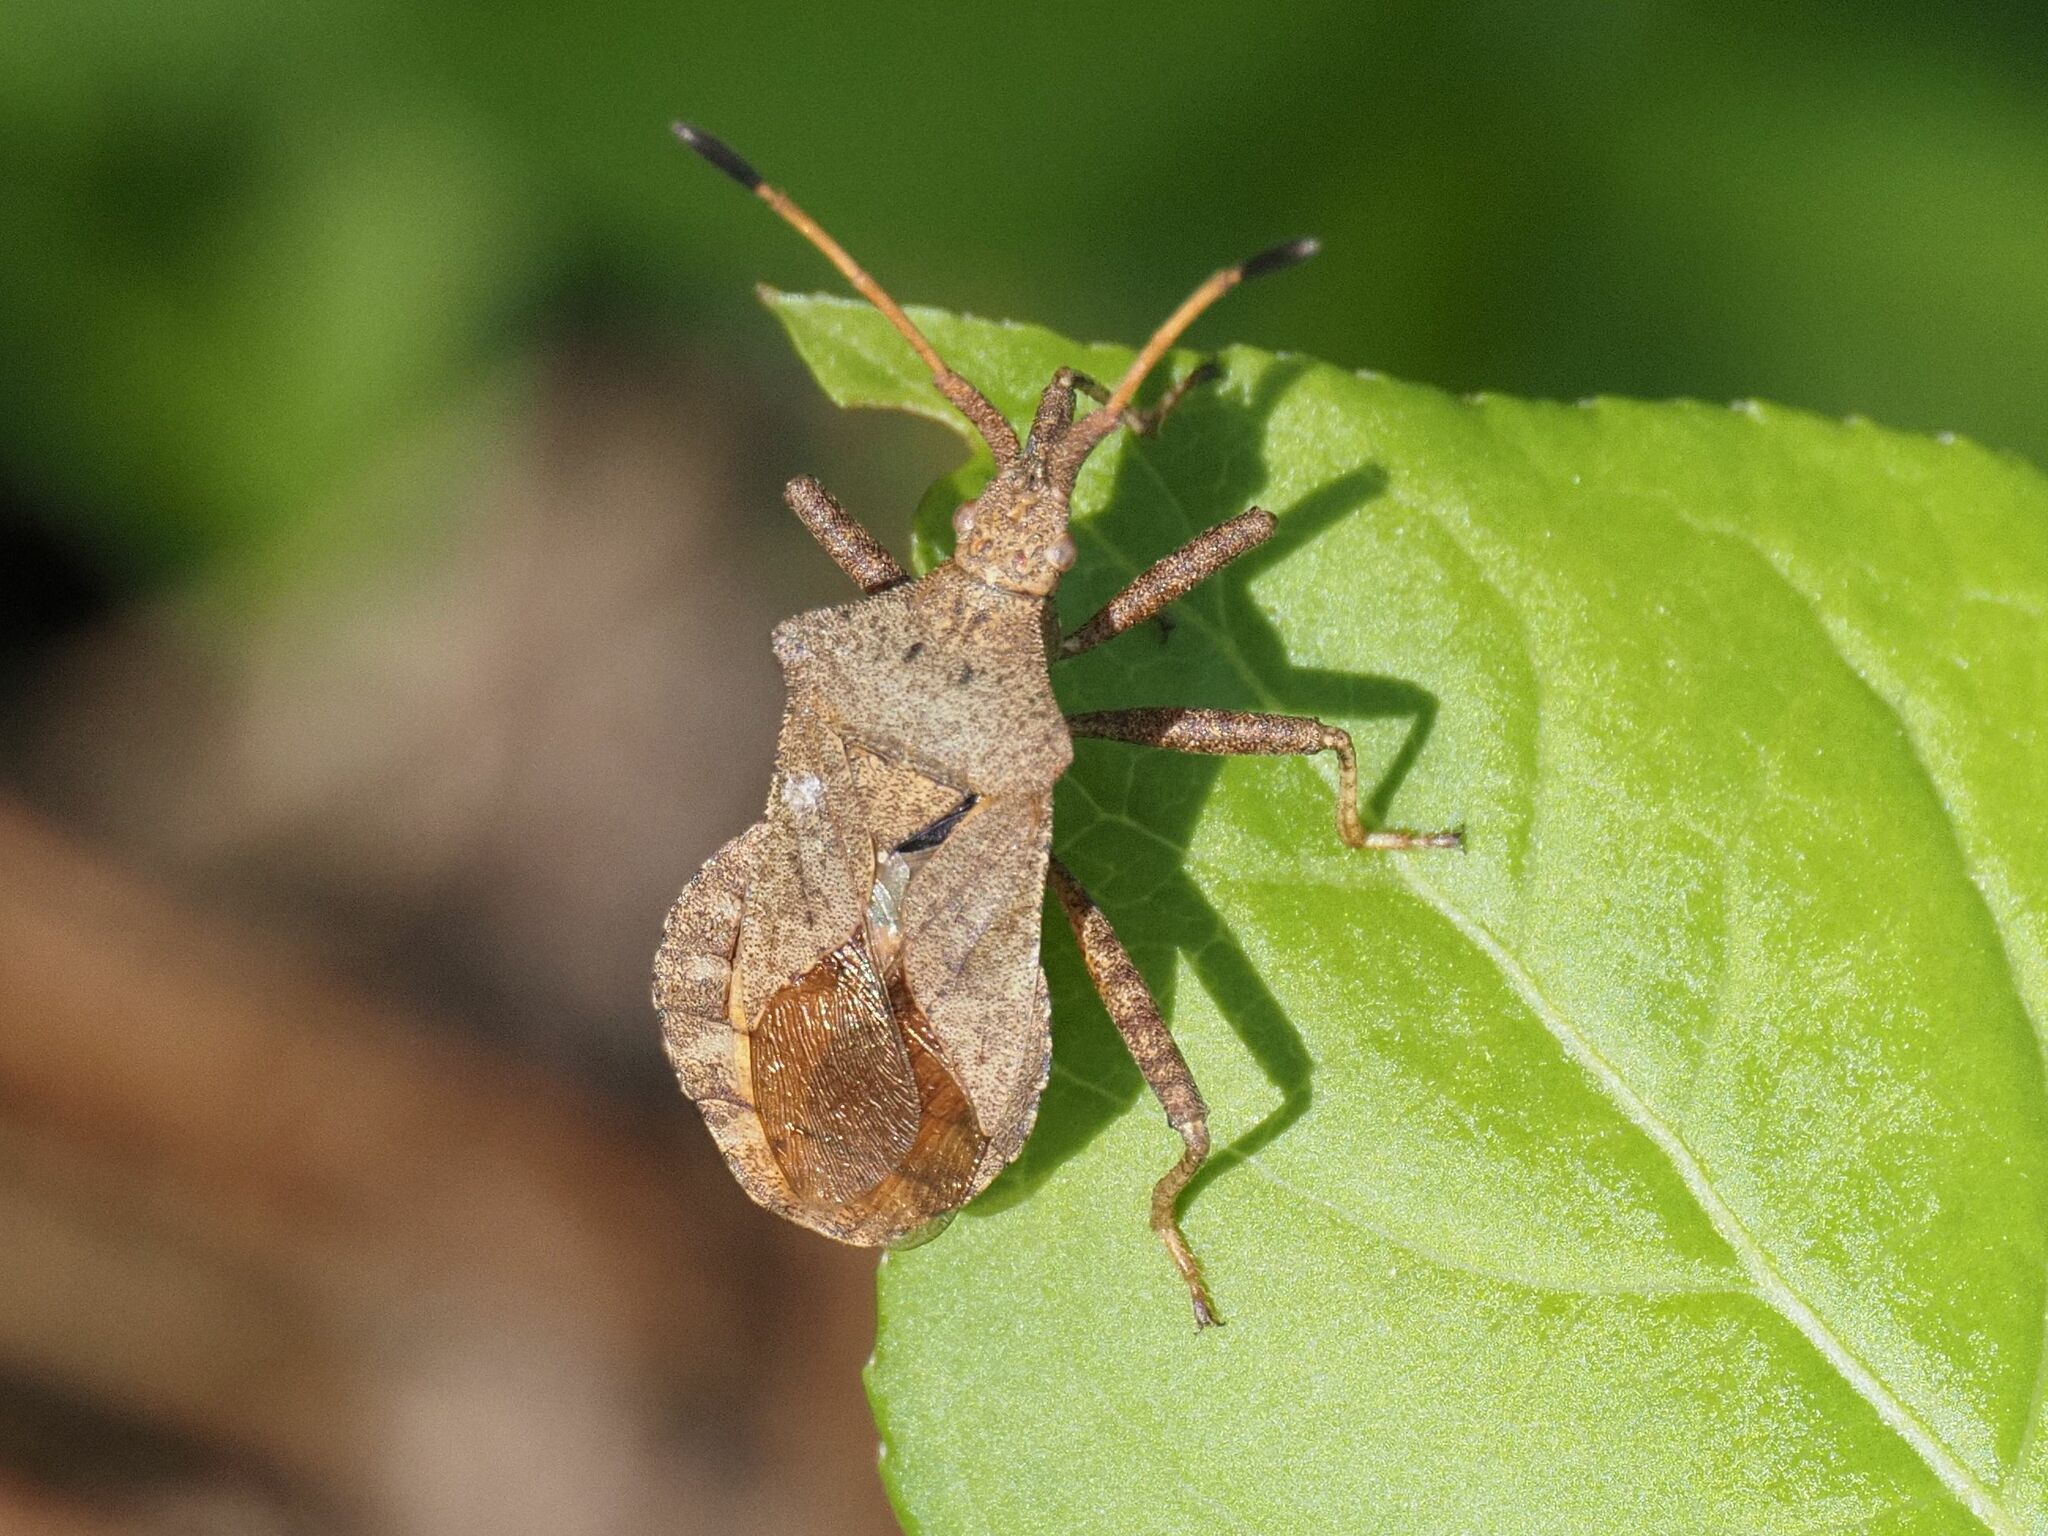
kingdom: Animalia
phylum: Arthropoda
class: Insecta
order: Hemiptera
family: Coreidae
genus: Coreus
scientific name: Coreus marginatus
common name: Dock bug
